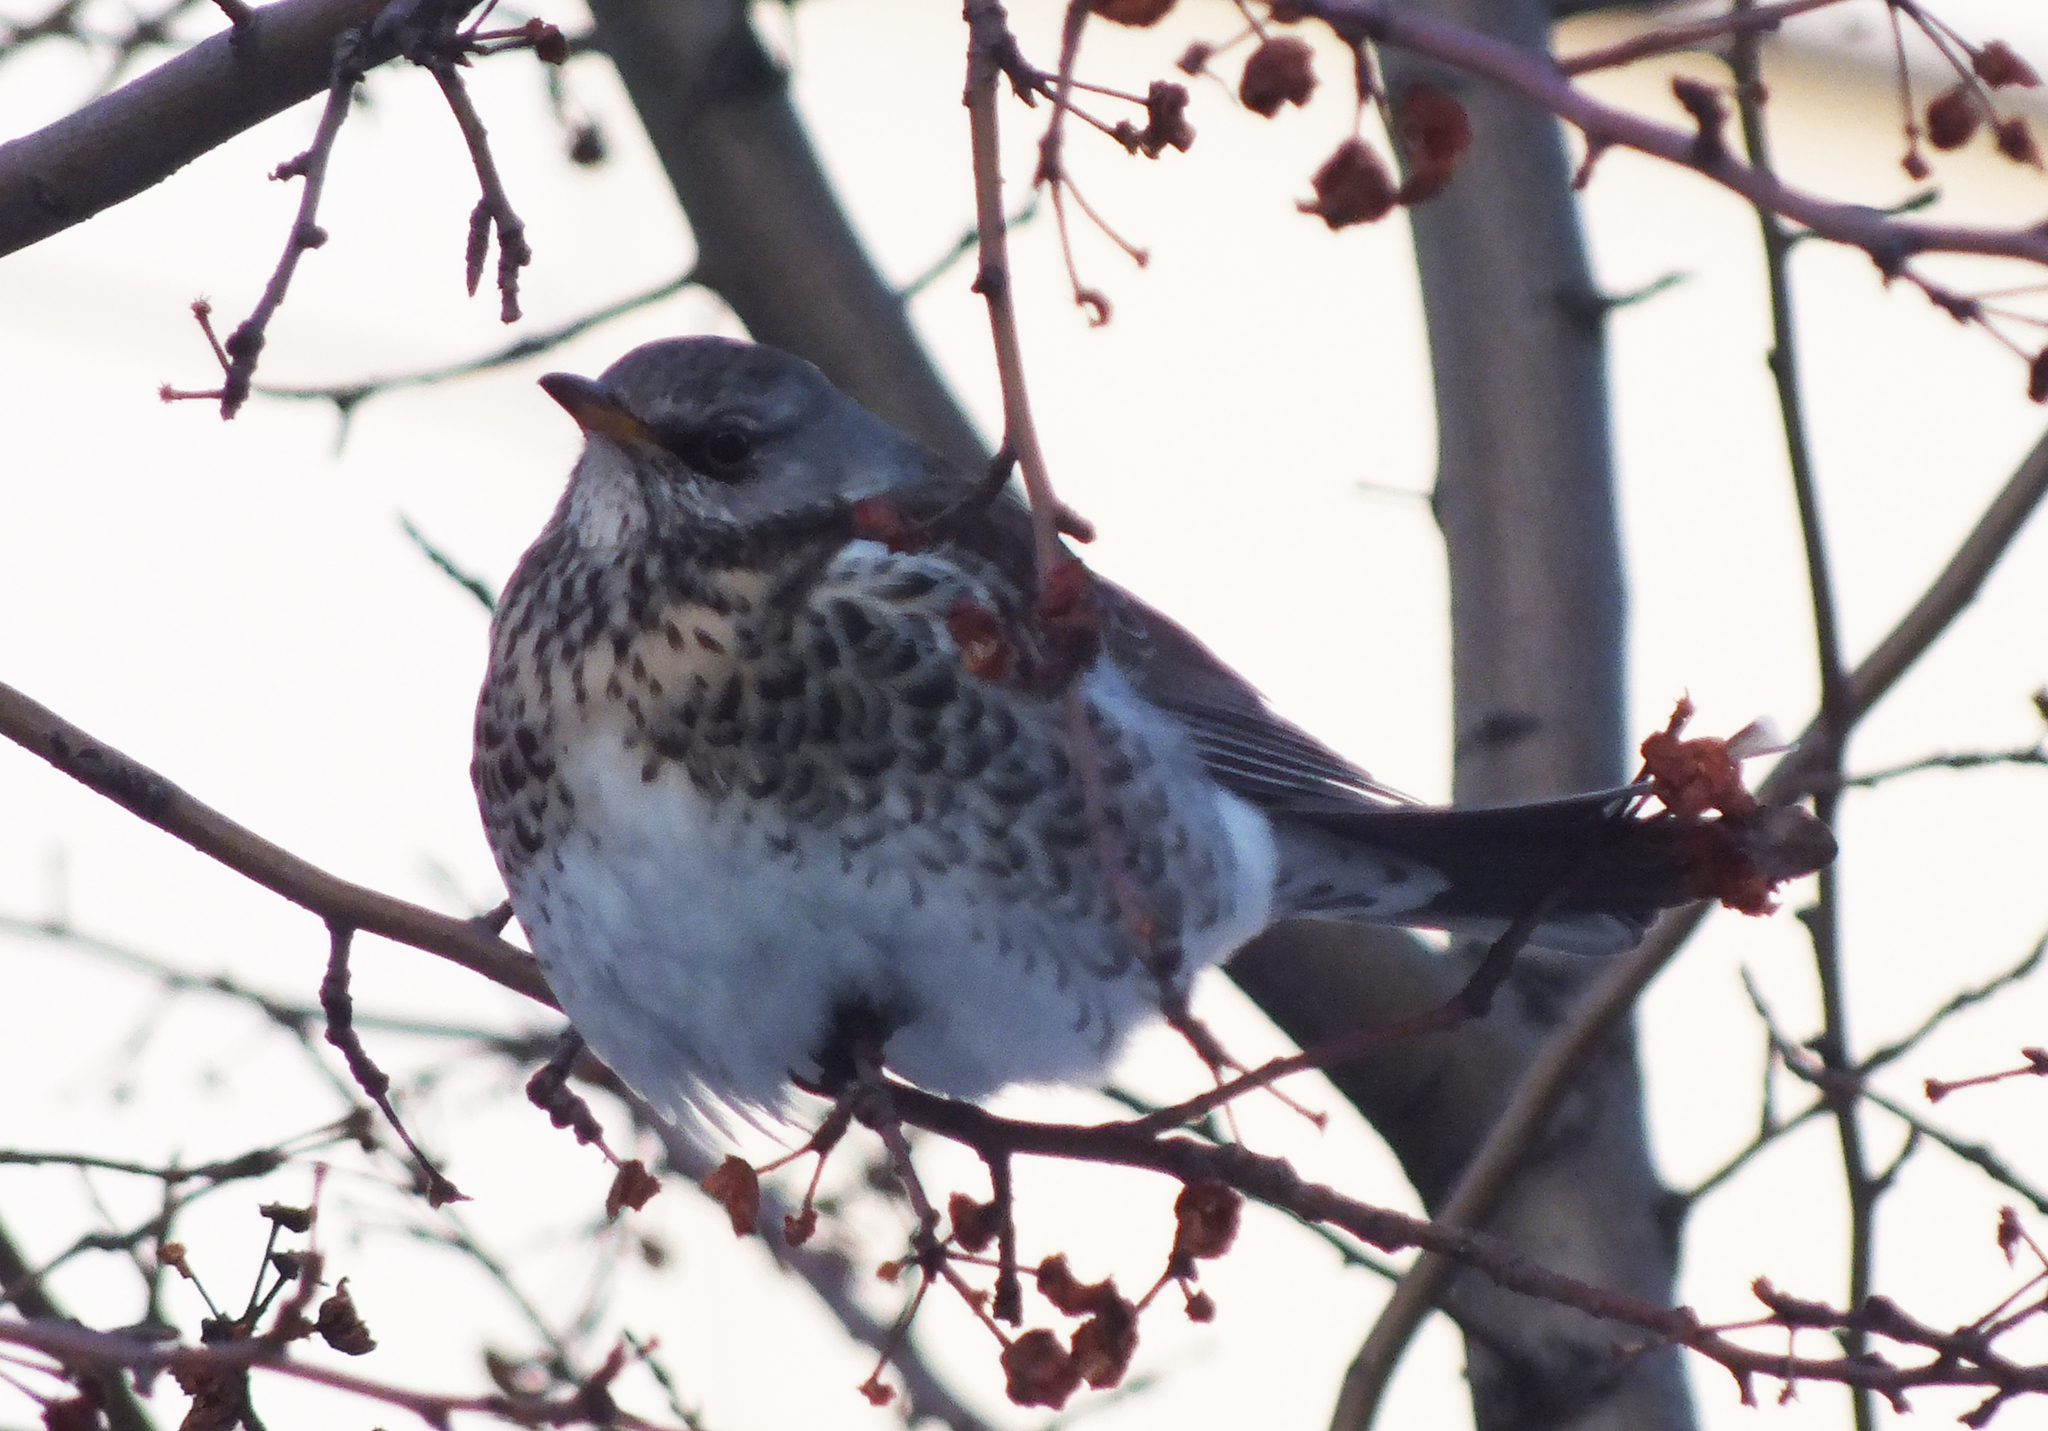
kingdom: Animalia
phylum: Chordata
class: Aves
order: Passeriformes
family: Turdidae
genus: Turdus
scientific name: Turdus pilaris
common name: Fieldfare
